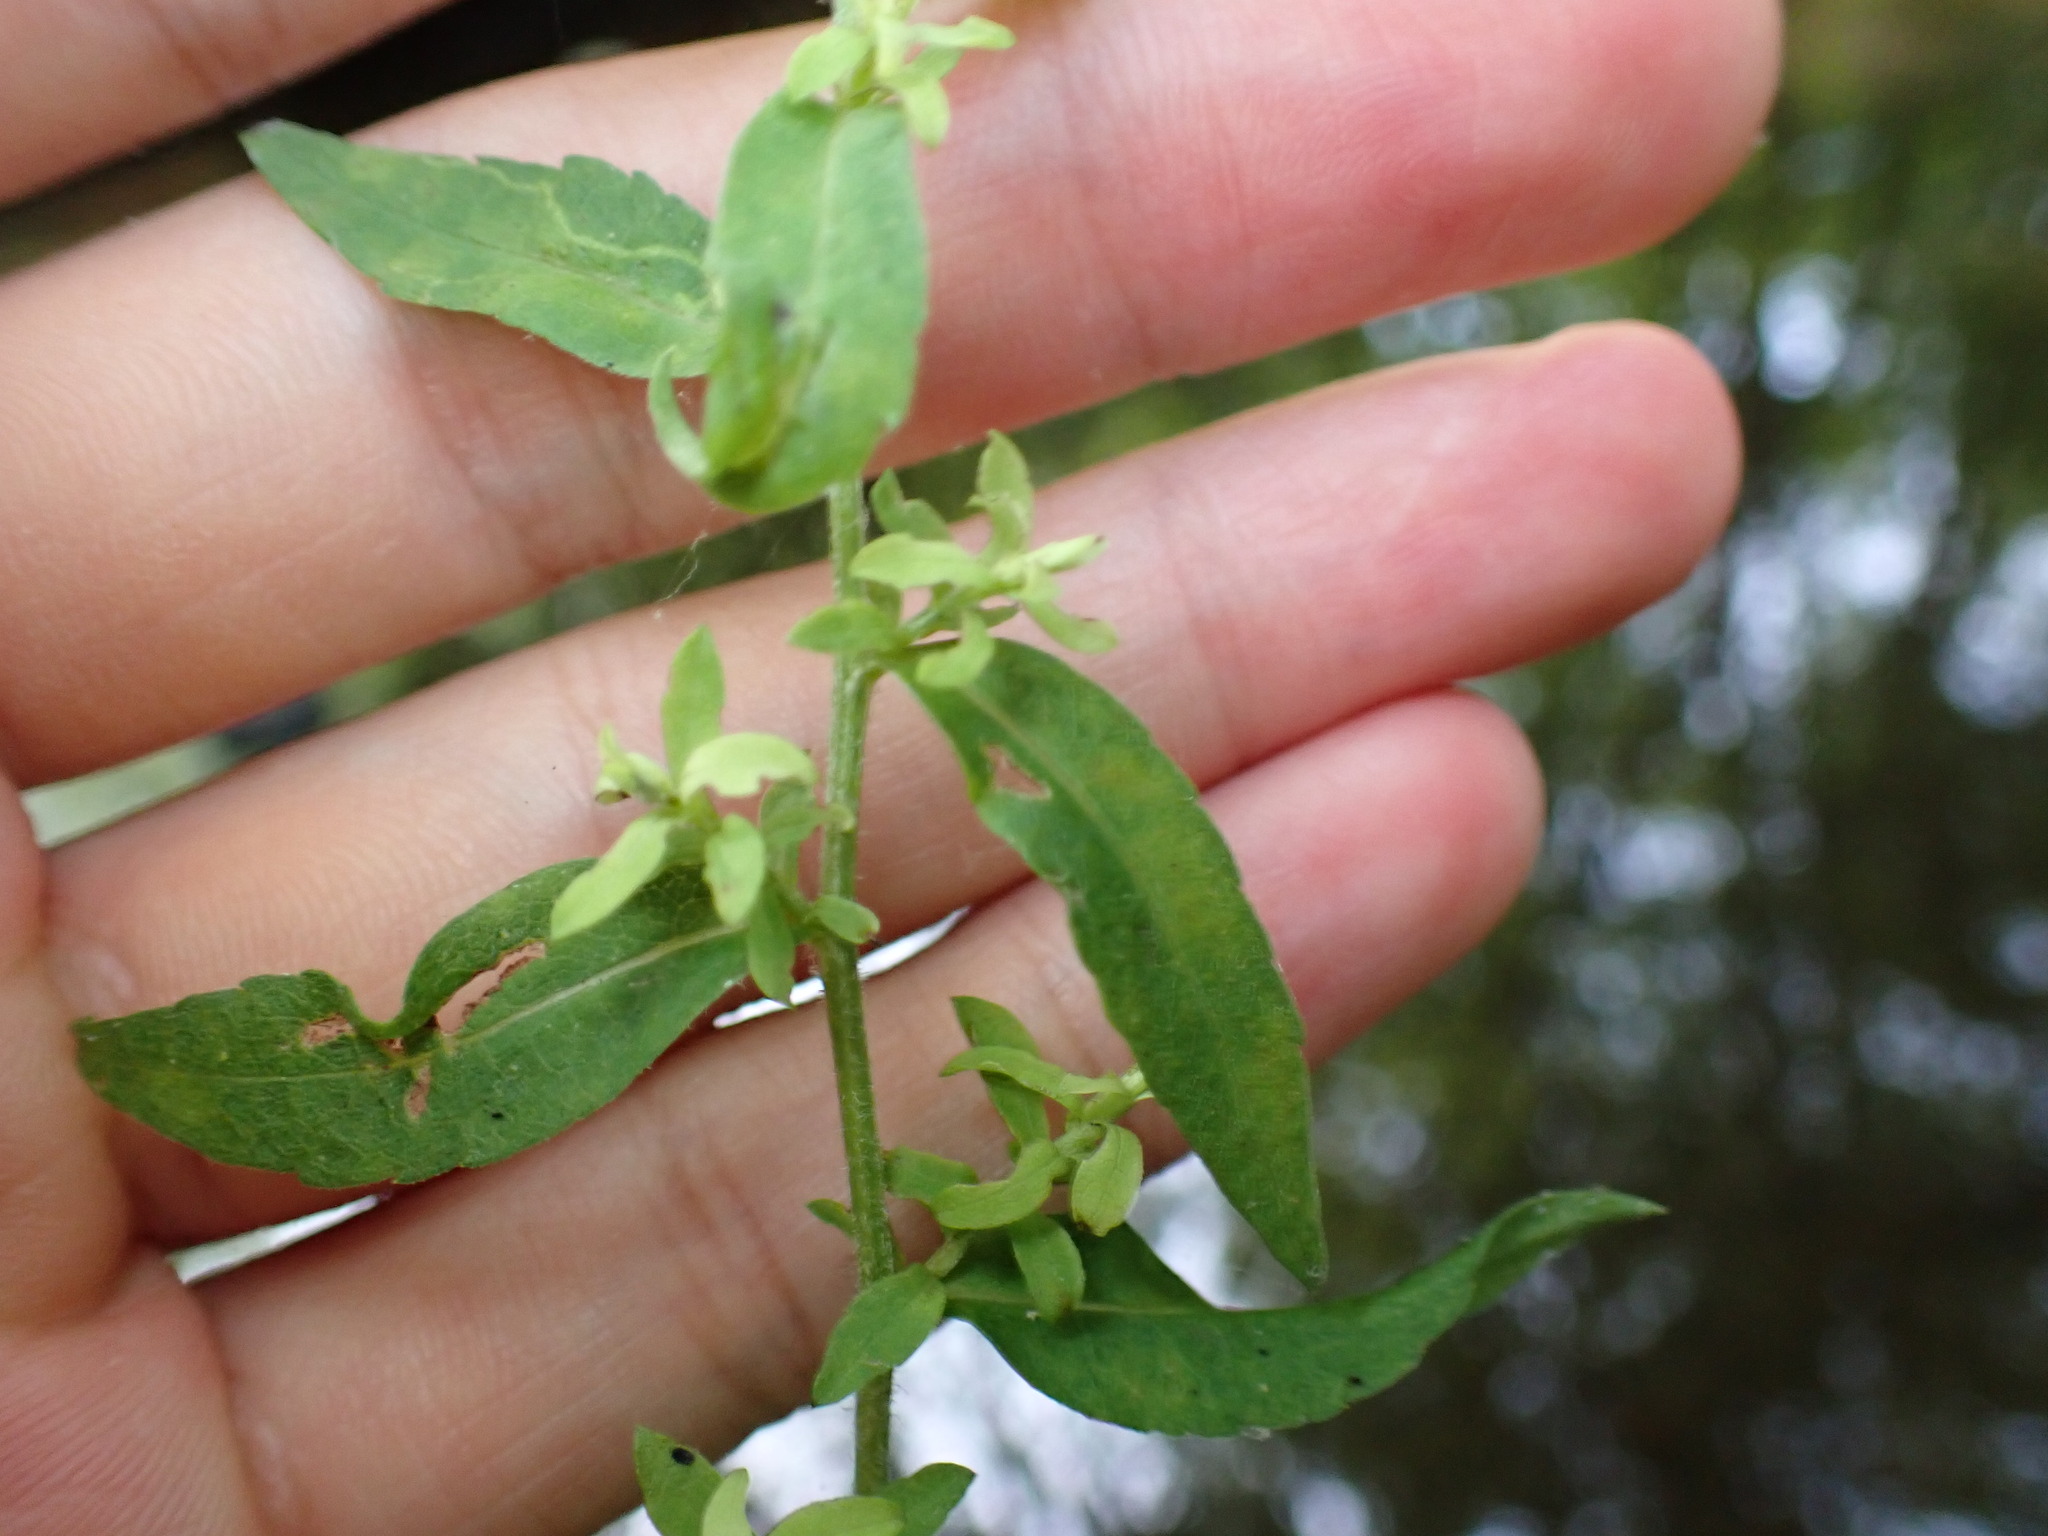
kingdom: Plantae
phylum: Tracheophyta
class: Magnoliopsida
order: Asterales
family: Asteraceae
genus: Symphyotrichum
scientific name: Symphyotrichum lateriflorum
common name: Calico aster
